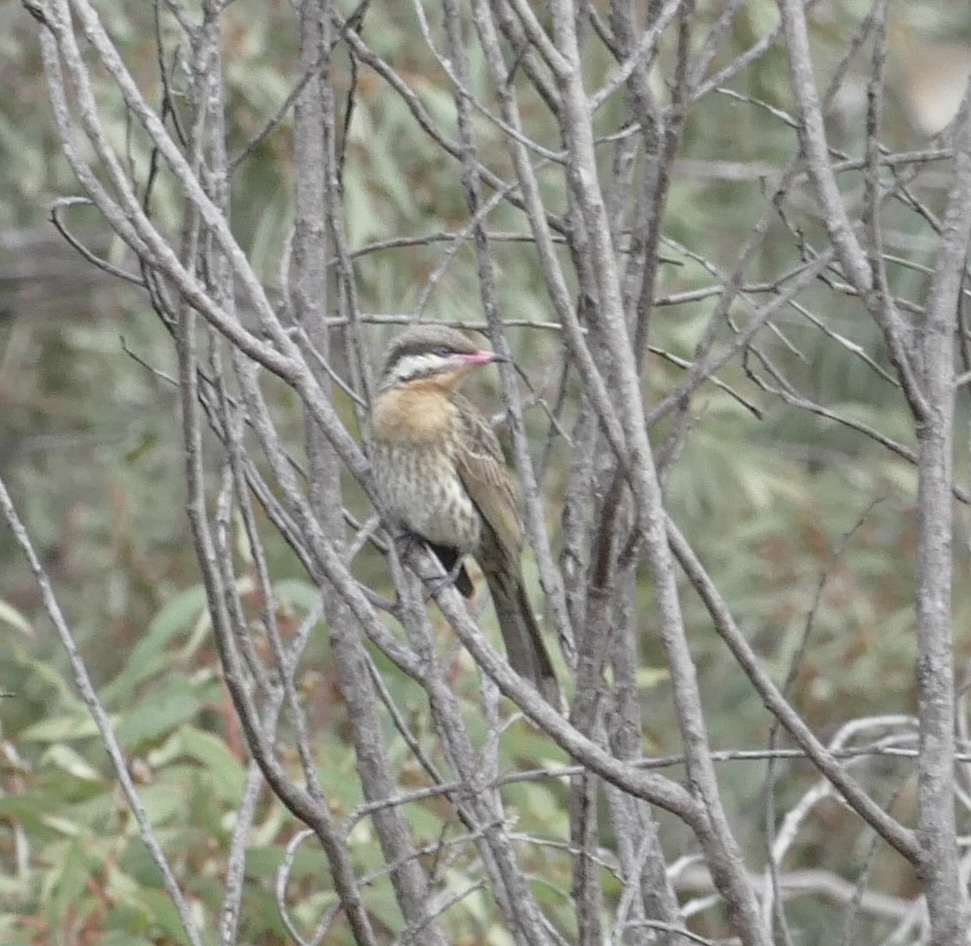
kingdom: Animalia
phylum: Chordata
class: Aves
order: Passeriformes
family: Meliphagidae
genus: Acanthagenys
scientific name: Acanthagenys rufogularis
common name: Spiny-cheeked honeyeater
